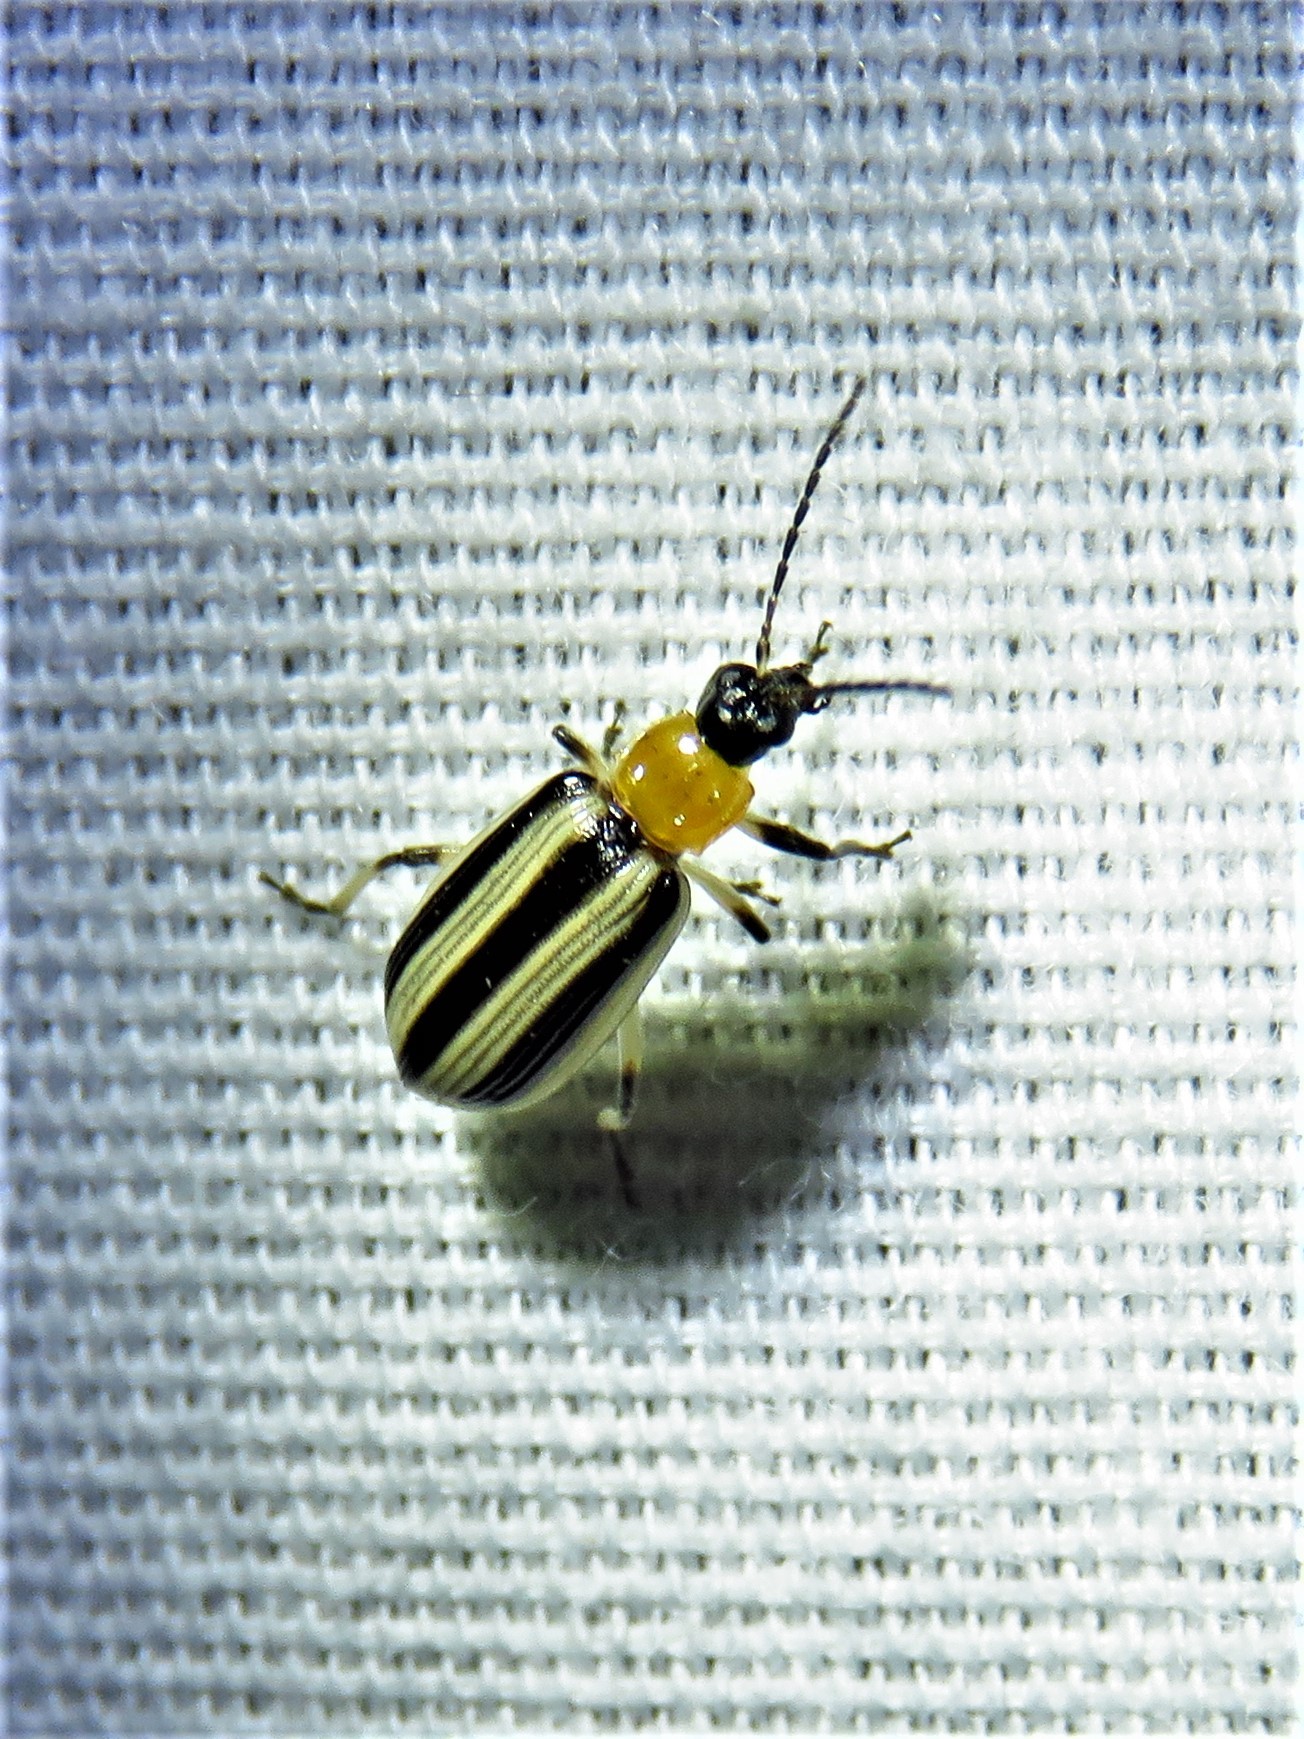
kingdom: Animalia
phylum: Arthropoda
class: Insecta
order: Coleoptera
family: Chrysomelidae
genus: Acalymma
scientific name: Acalymma vittatum
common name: Striped cucumber beetle
